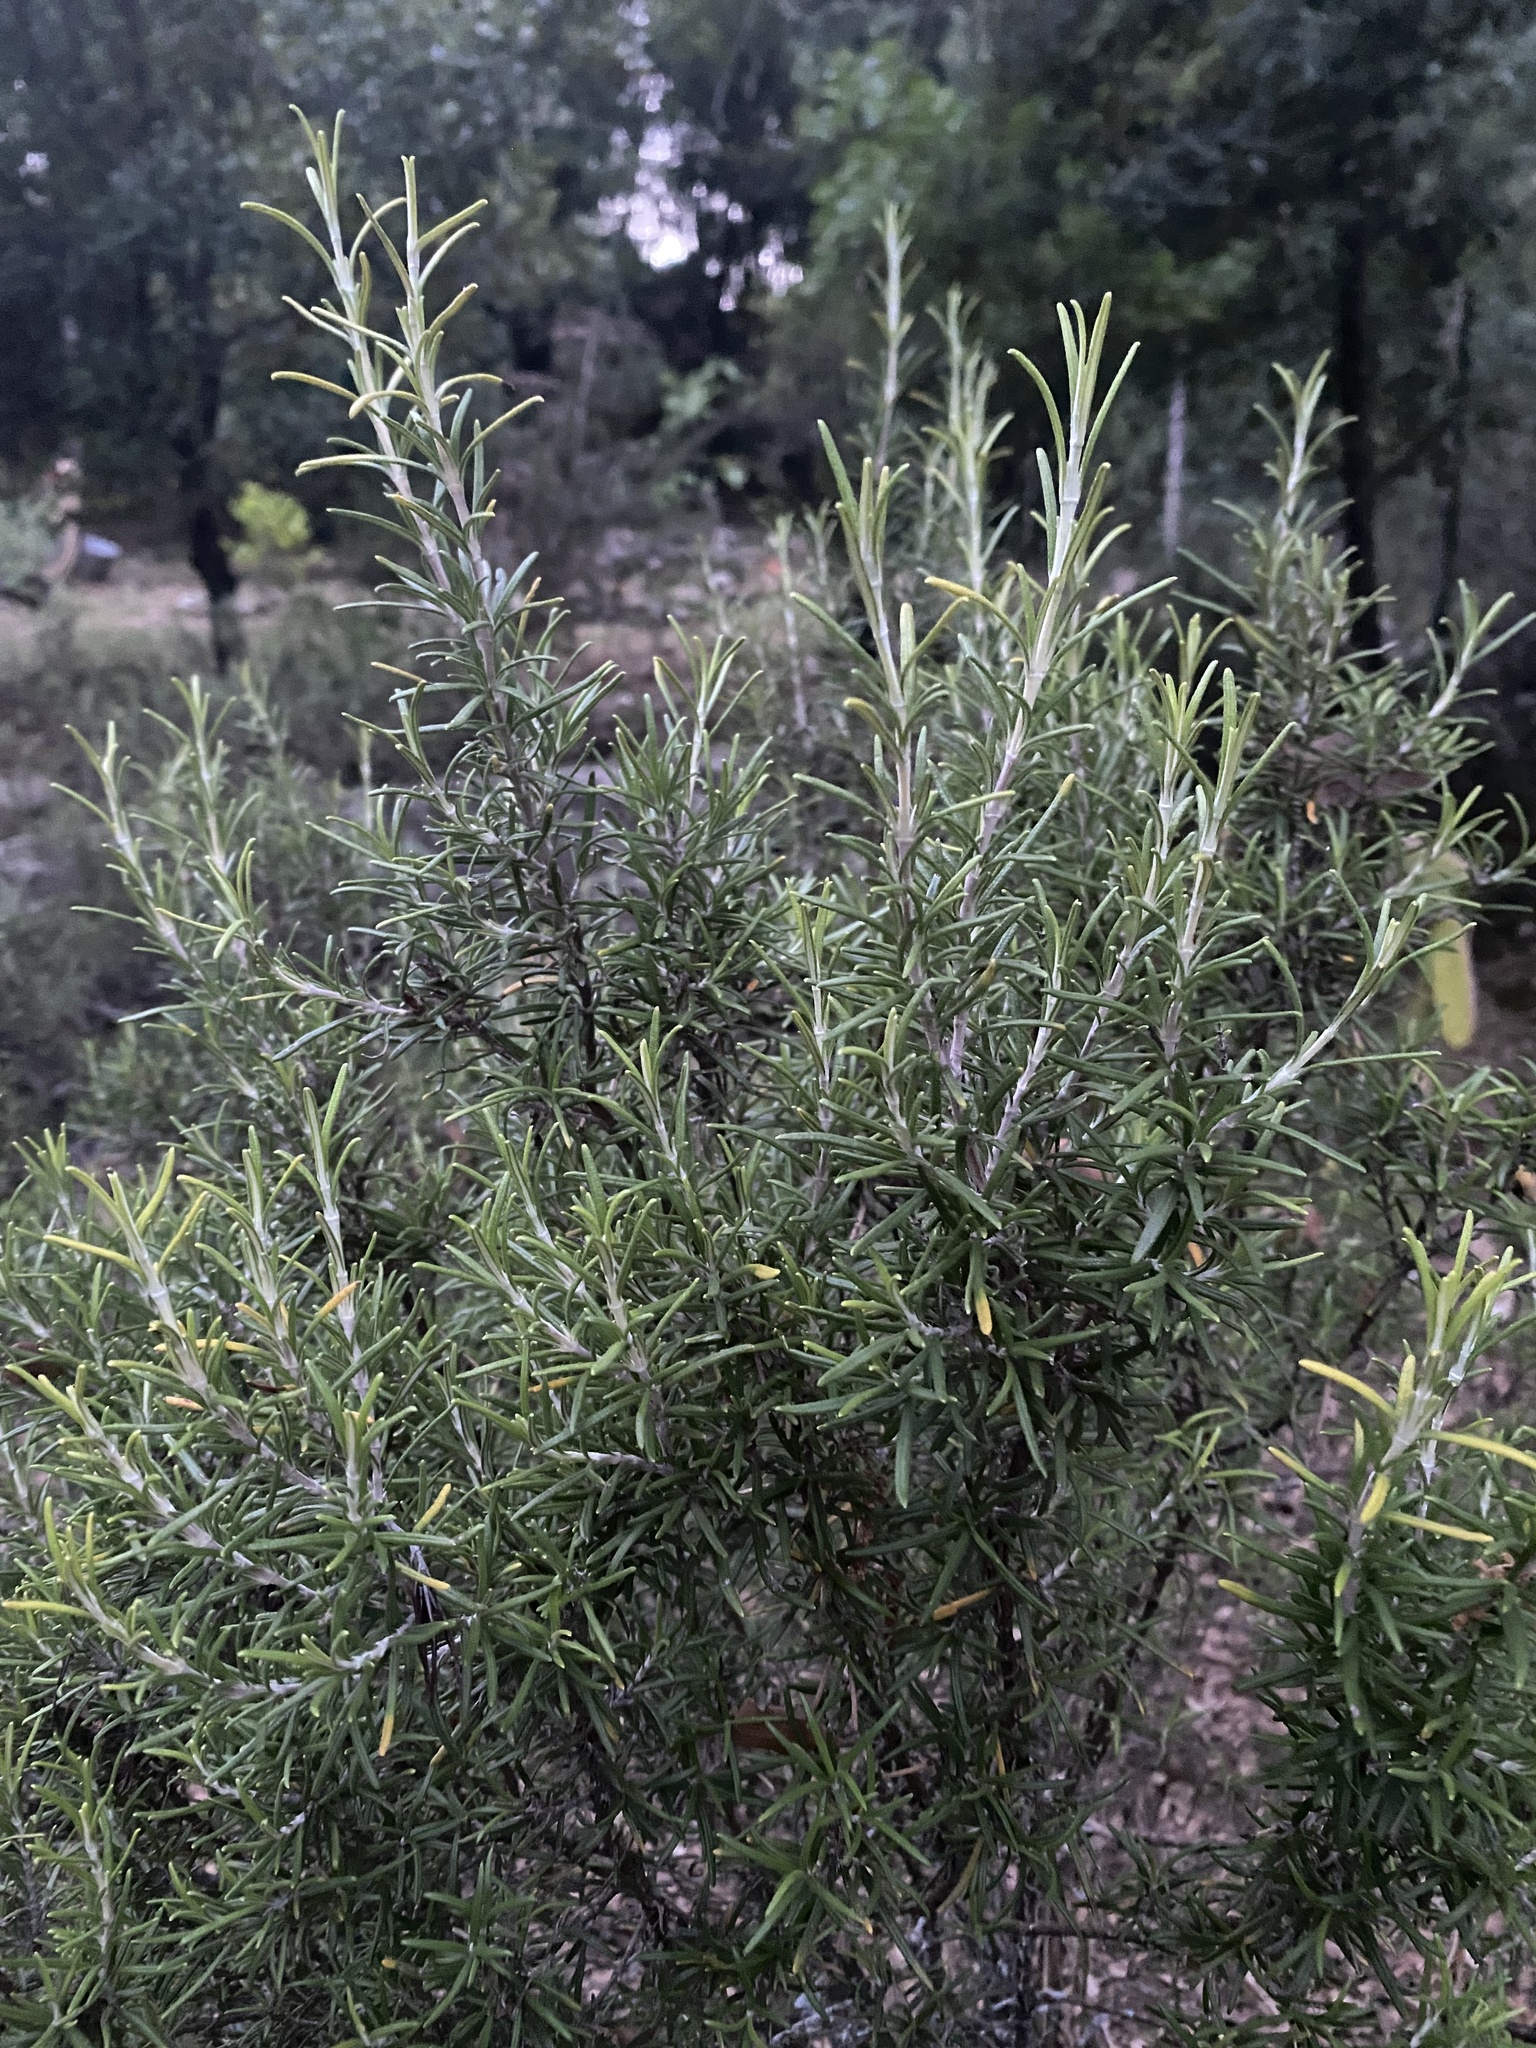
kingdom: Plantae
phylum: Tracheophyta
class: Magnoliopsida
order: Lamiales
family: Lamiaceae
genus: Salvia
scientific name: Salvia rosmarinus
